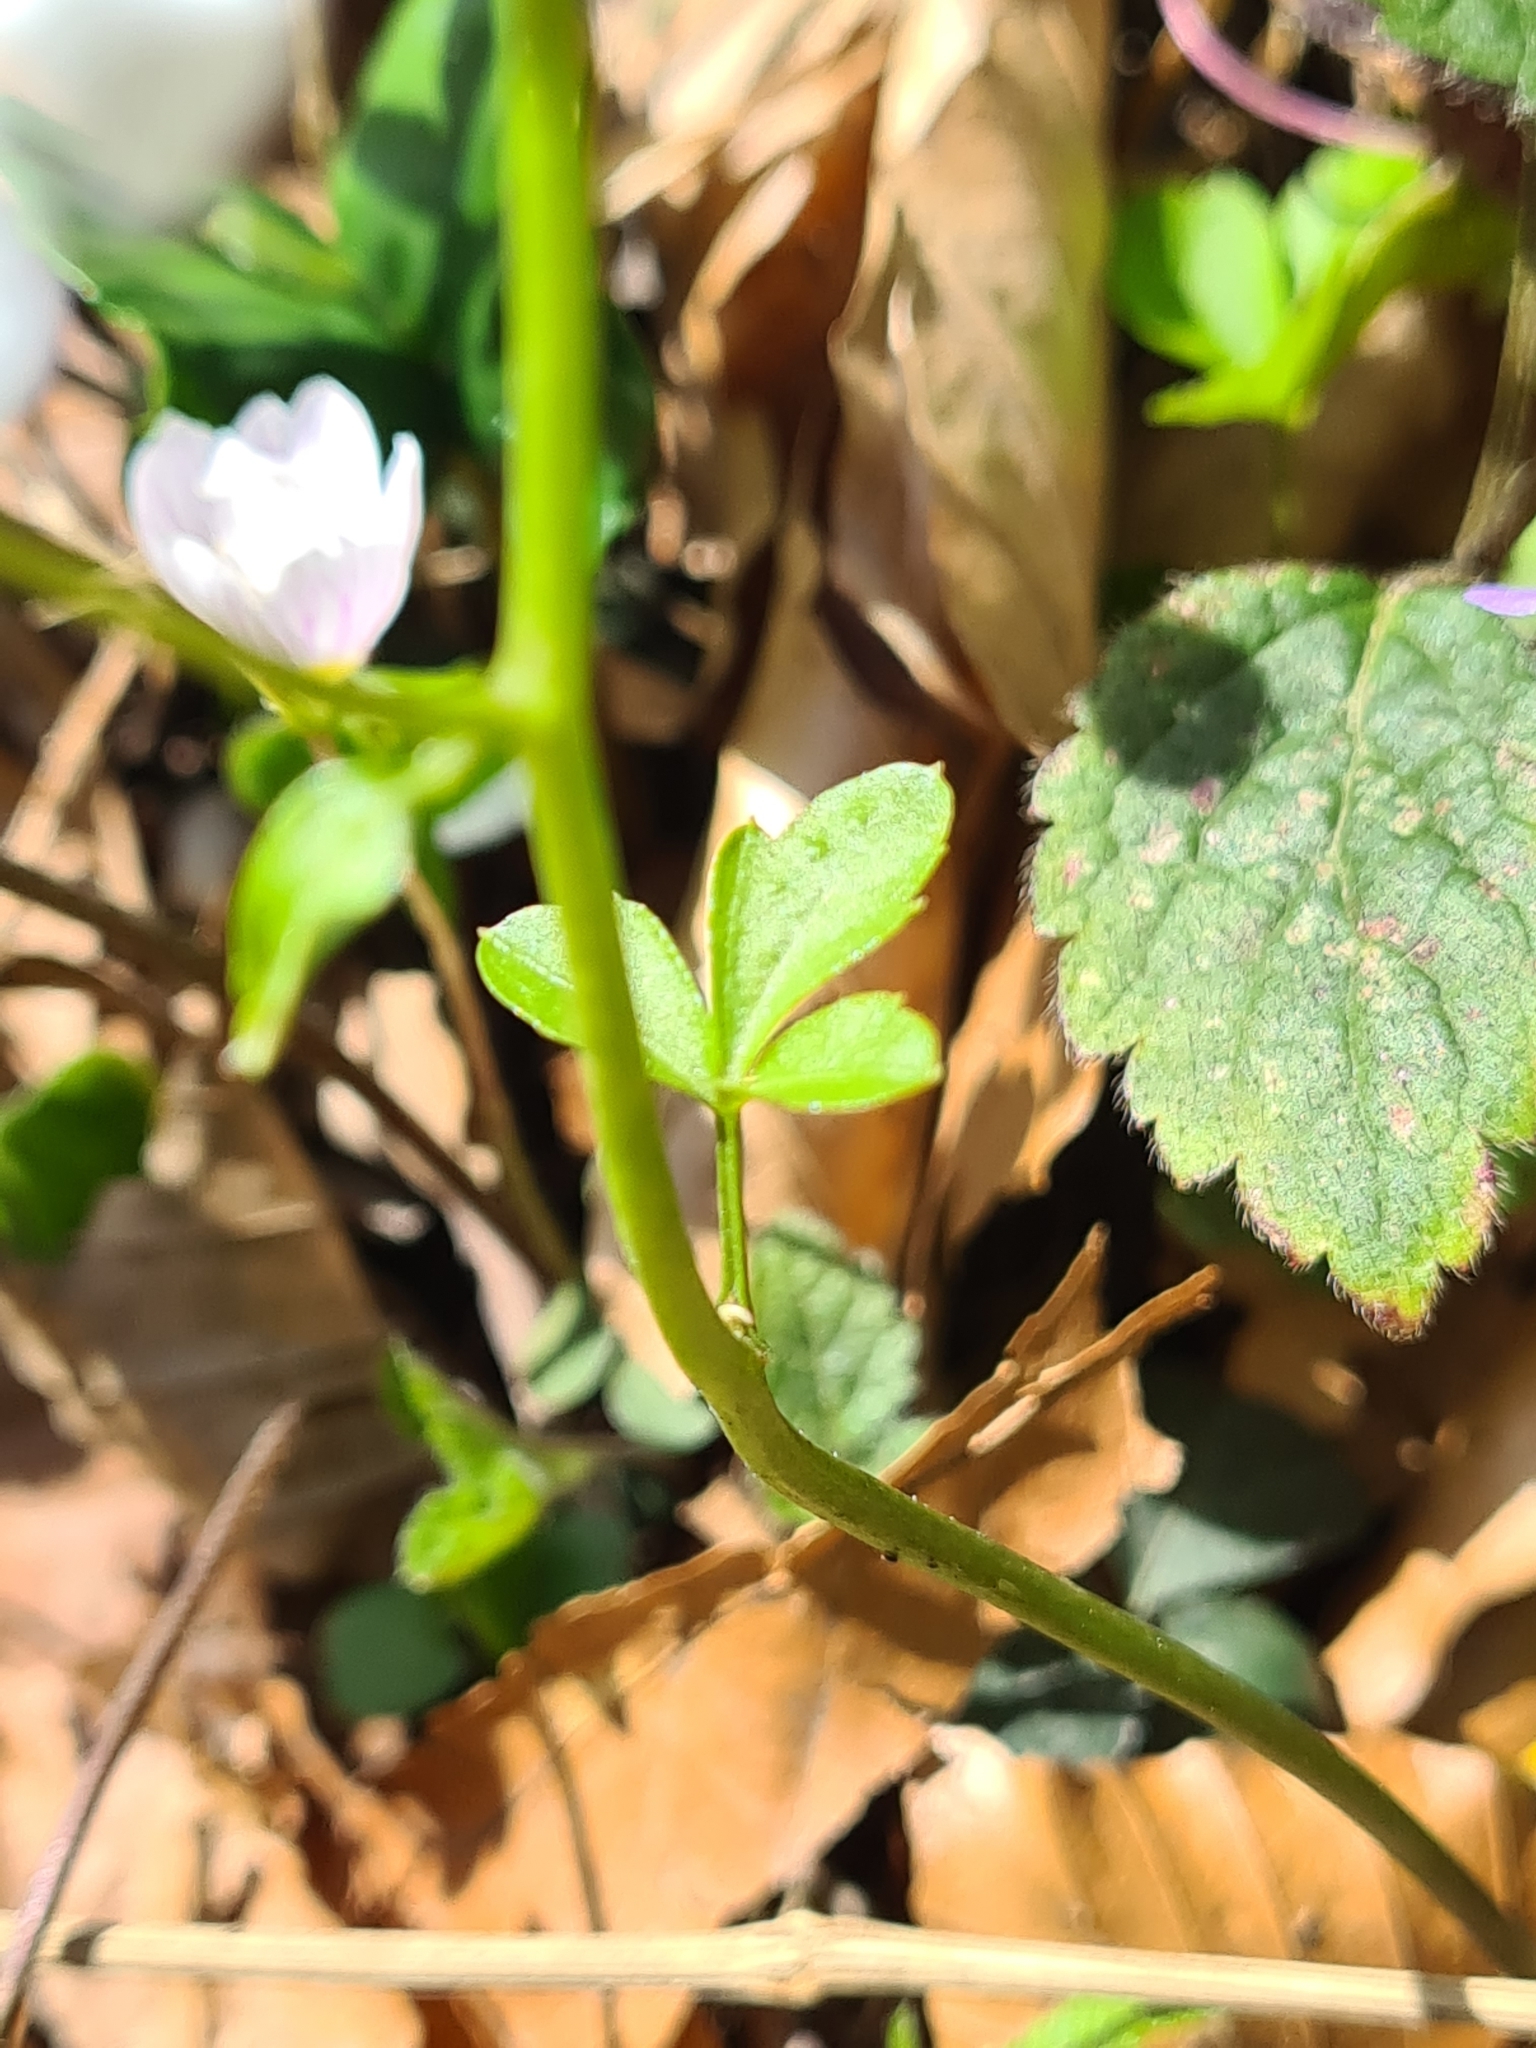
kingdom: Plantae
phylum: Tracheophyta
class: Magnoliopsida
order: Brassicales
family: Brassicaceae
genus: Cardamine
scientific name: Cardamine trifolia
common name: Trefoil cress
